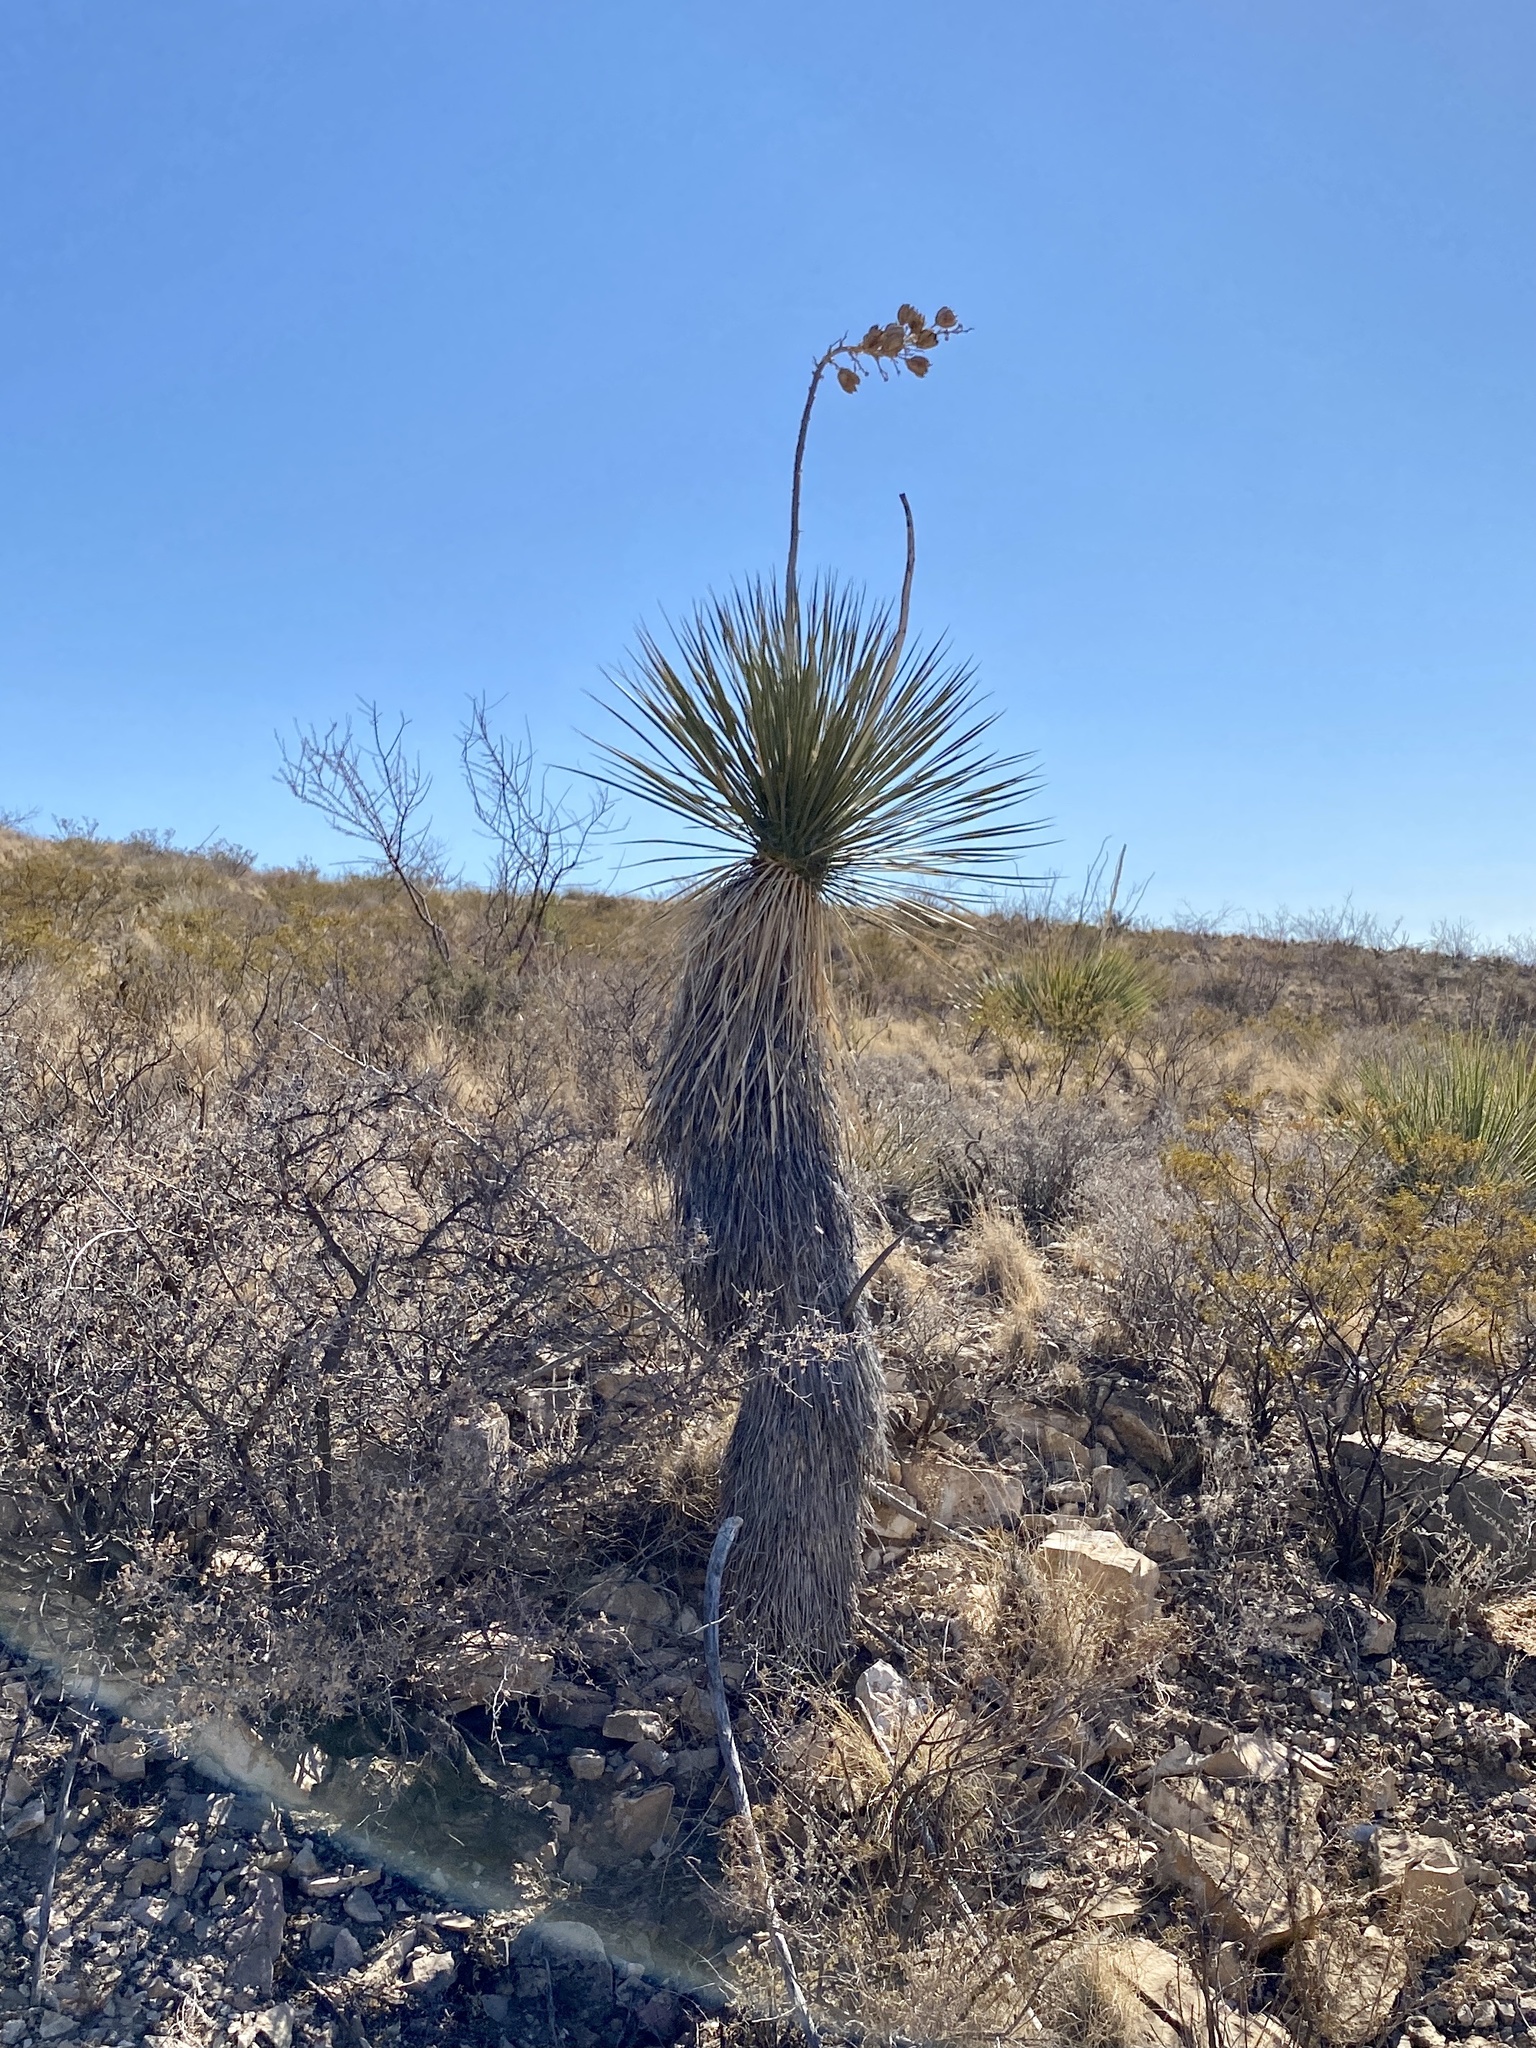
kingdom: Plantae
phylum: Tracheophyta
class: Liliopsida
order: Asparagales
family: Asparagaceae
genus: Yucca
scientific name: Yucca elata
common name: Palmella
